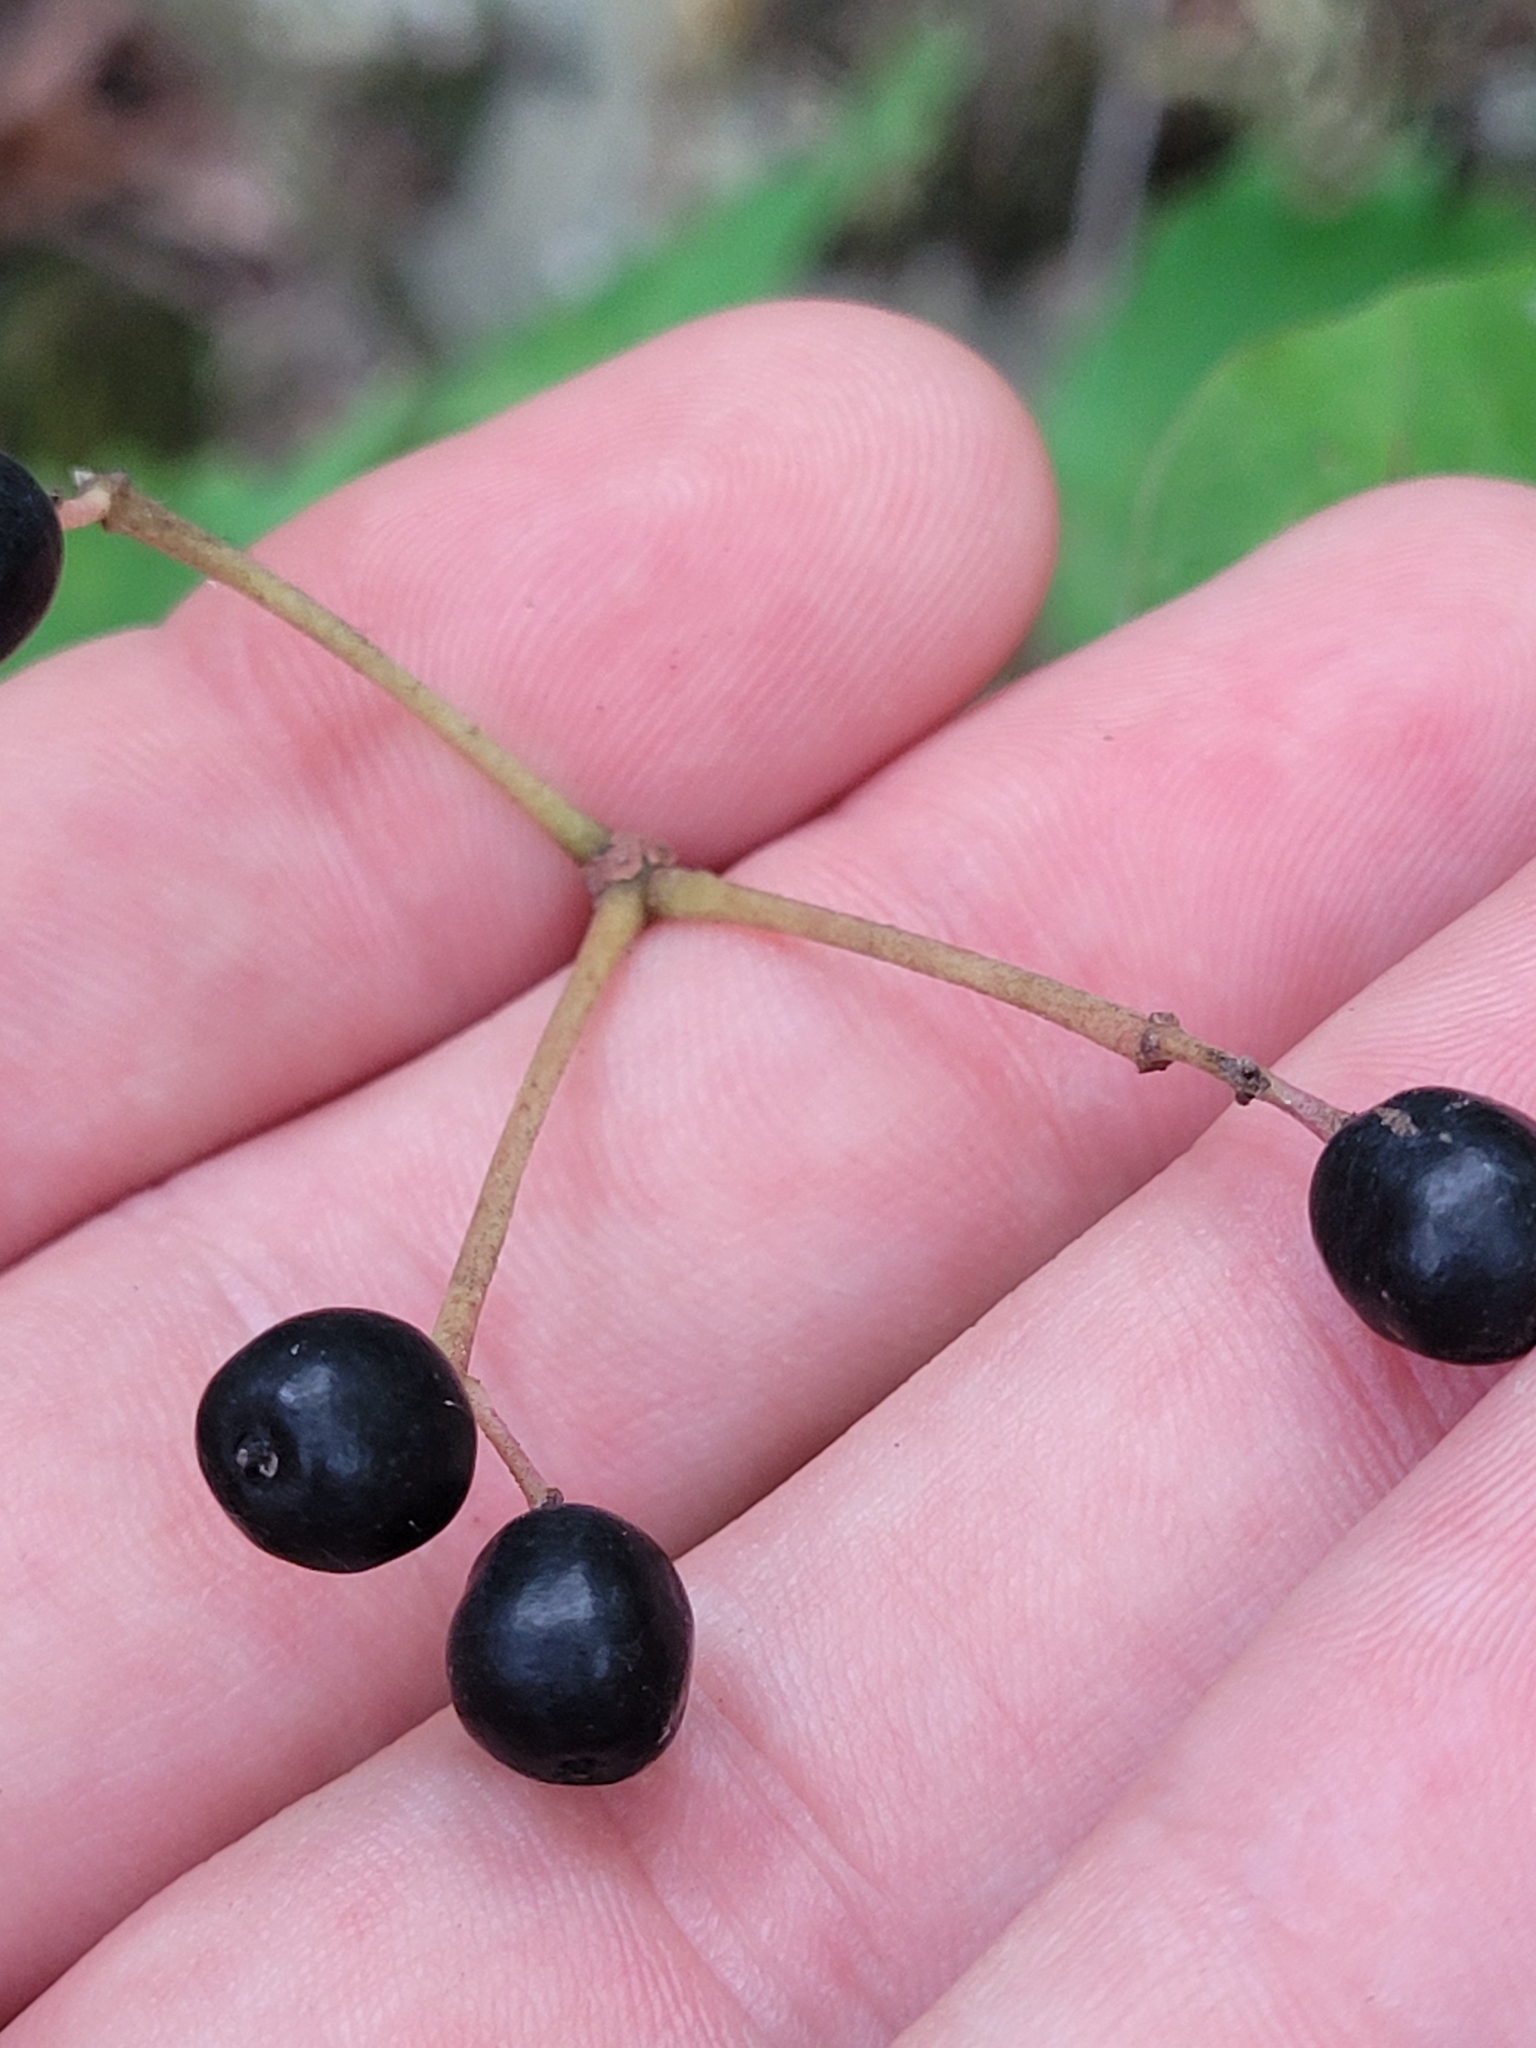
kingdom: Plantae
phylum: Tracheophyta
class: Magnoliopsida
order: Dipsacales
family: Viburnaceae
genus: Viburnum
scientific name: Viburnum acerifolium
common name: Dockmackie
